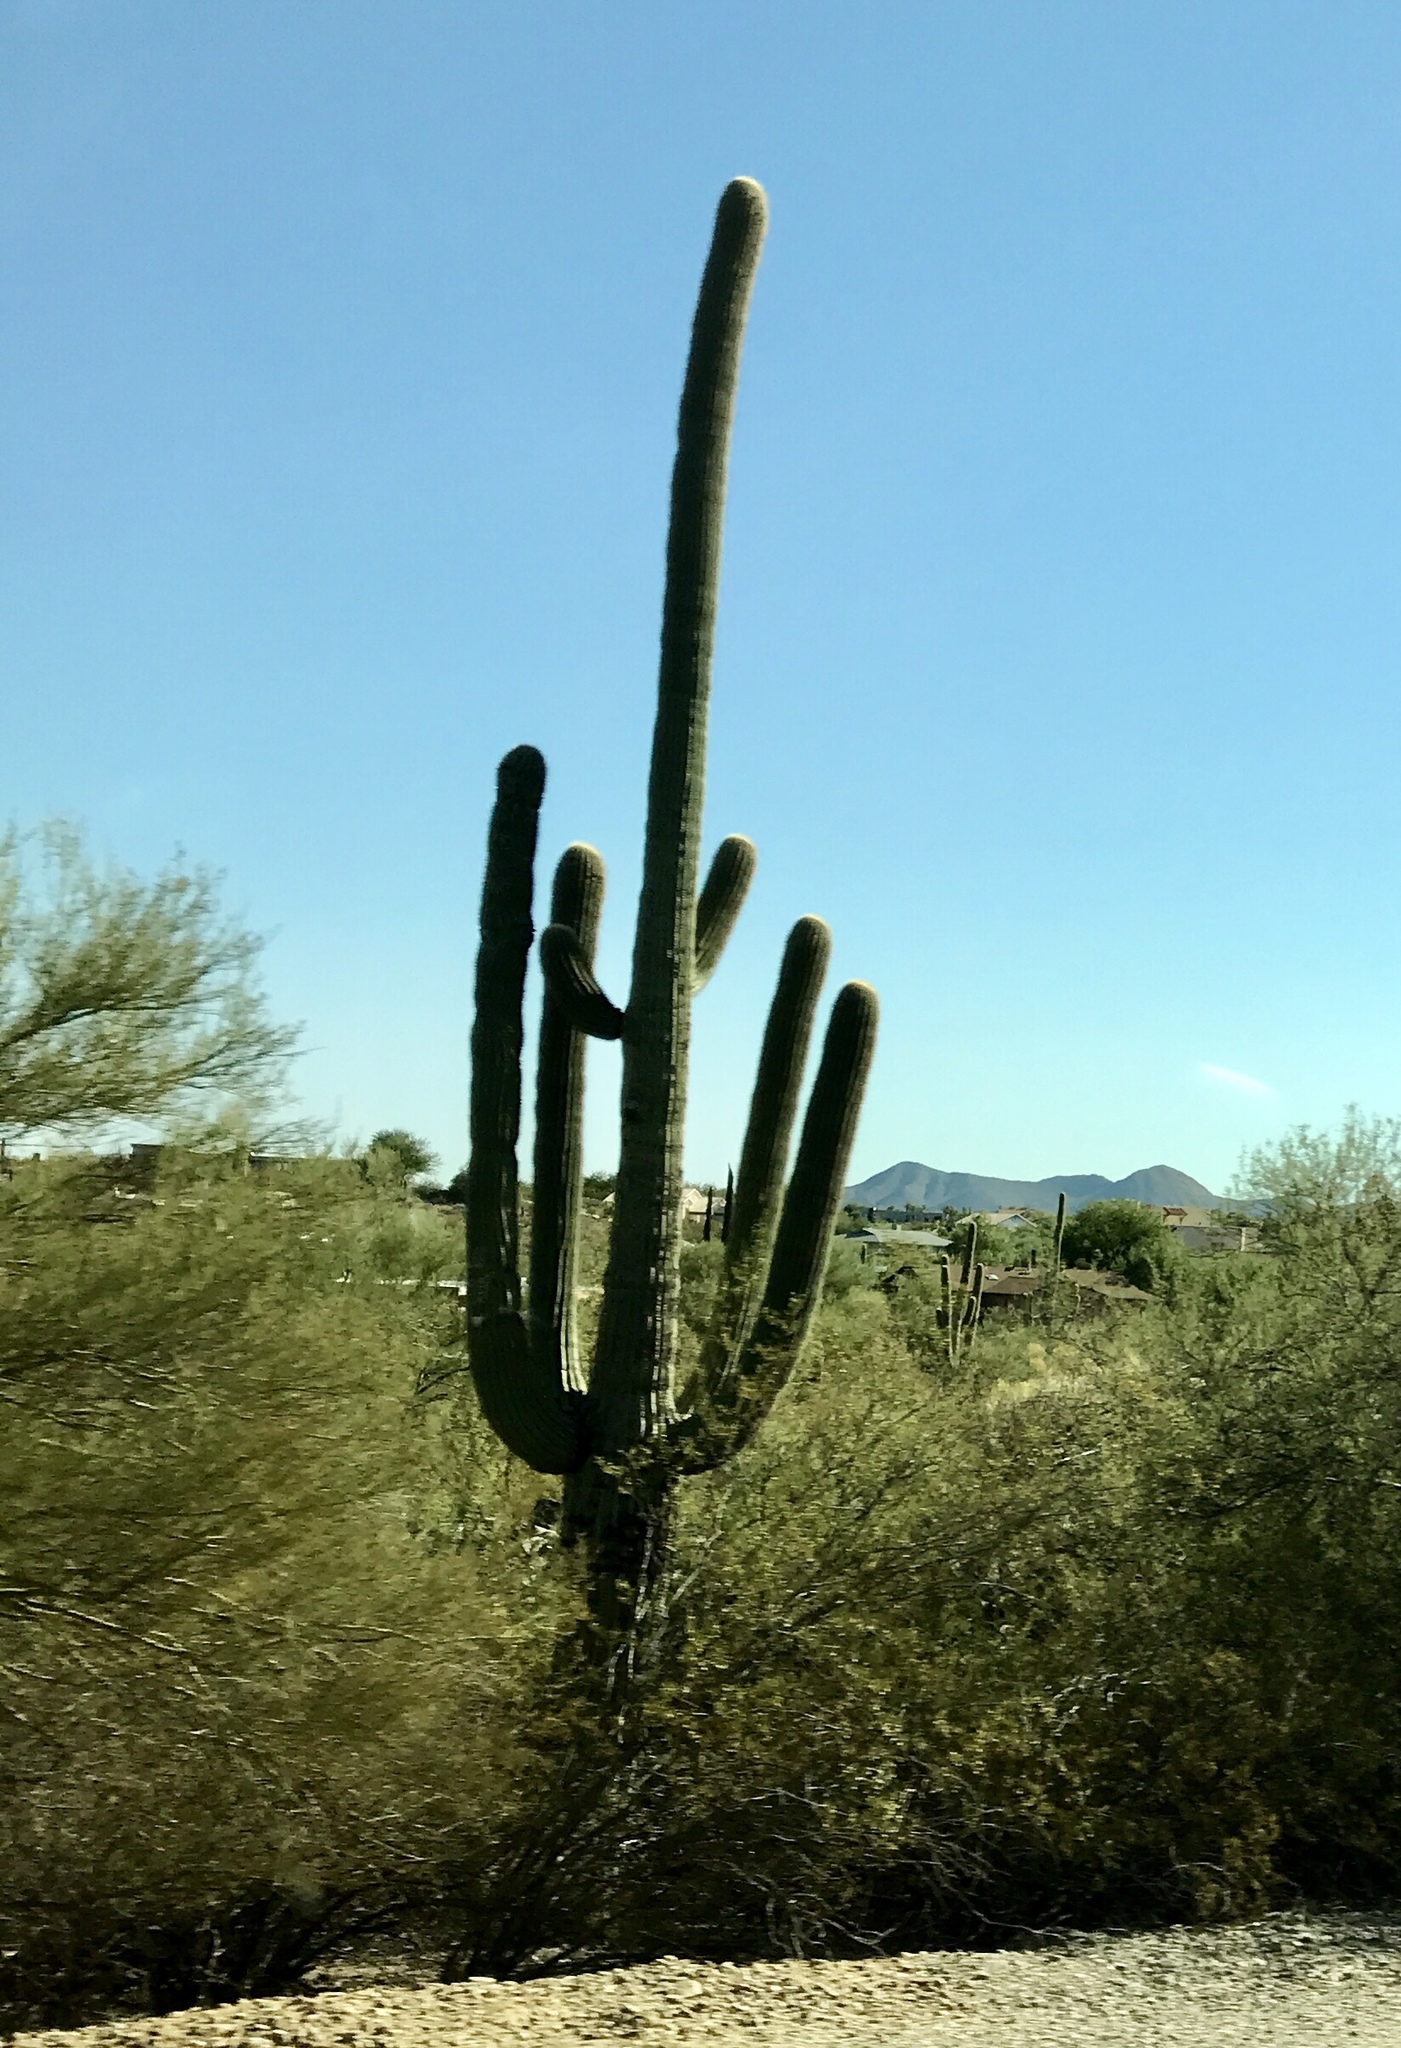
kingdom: Plantae
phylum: Tracheophyta
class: Magnoliopsida
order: Caryophyllales
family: Cactaceae
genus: Carnegiea
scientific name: Carnegiea gigantea
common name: Saguaro
